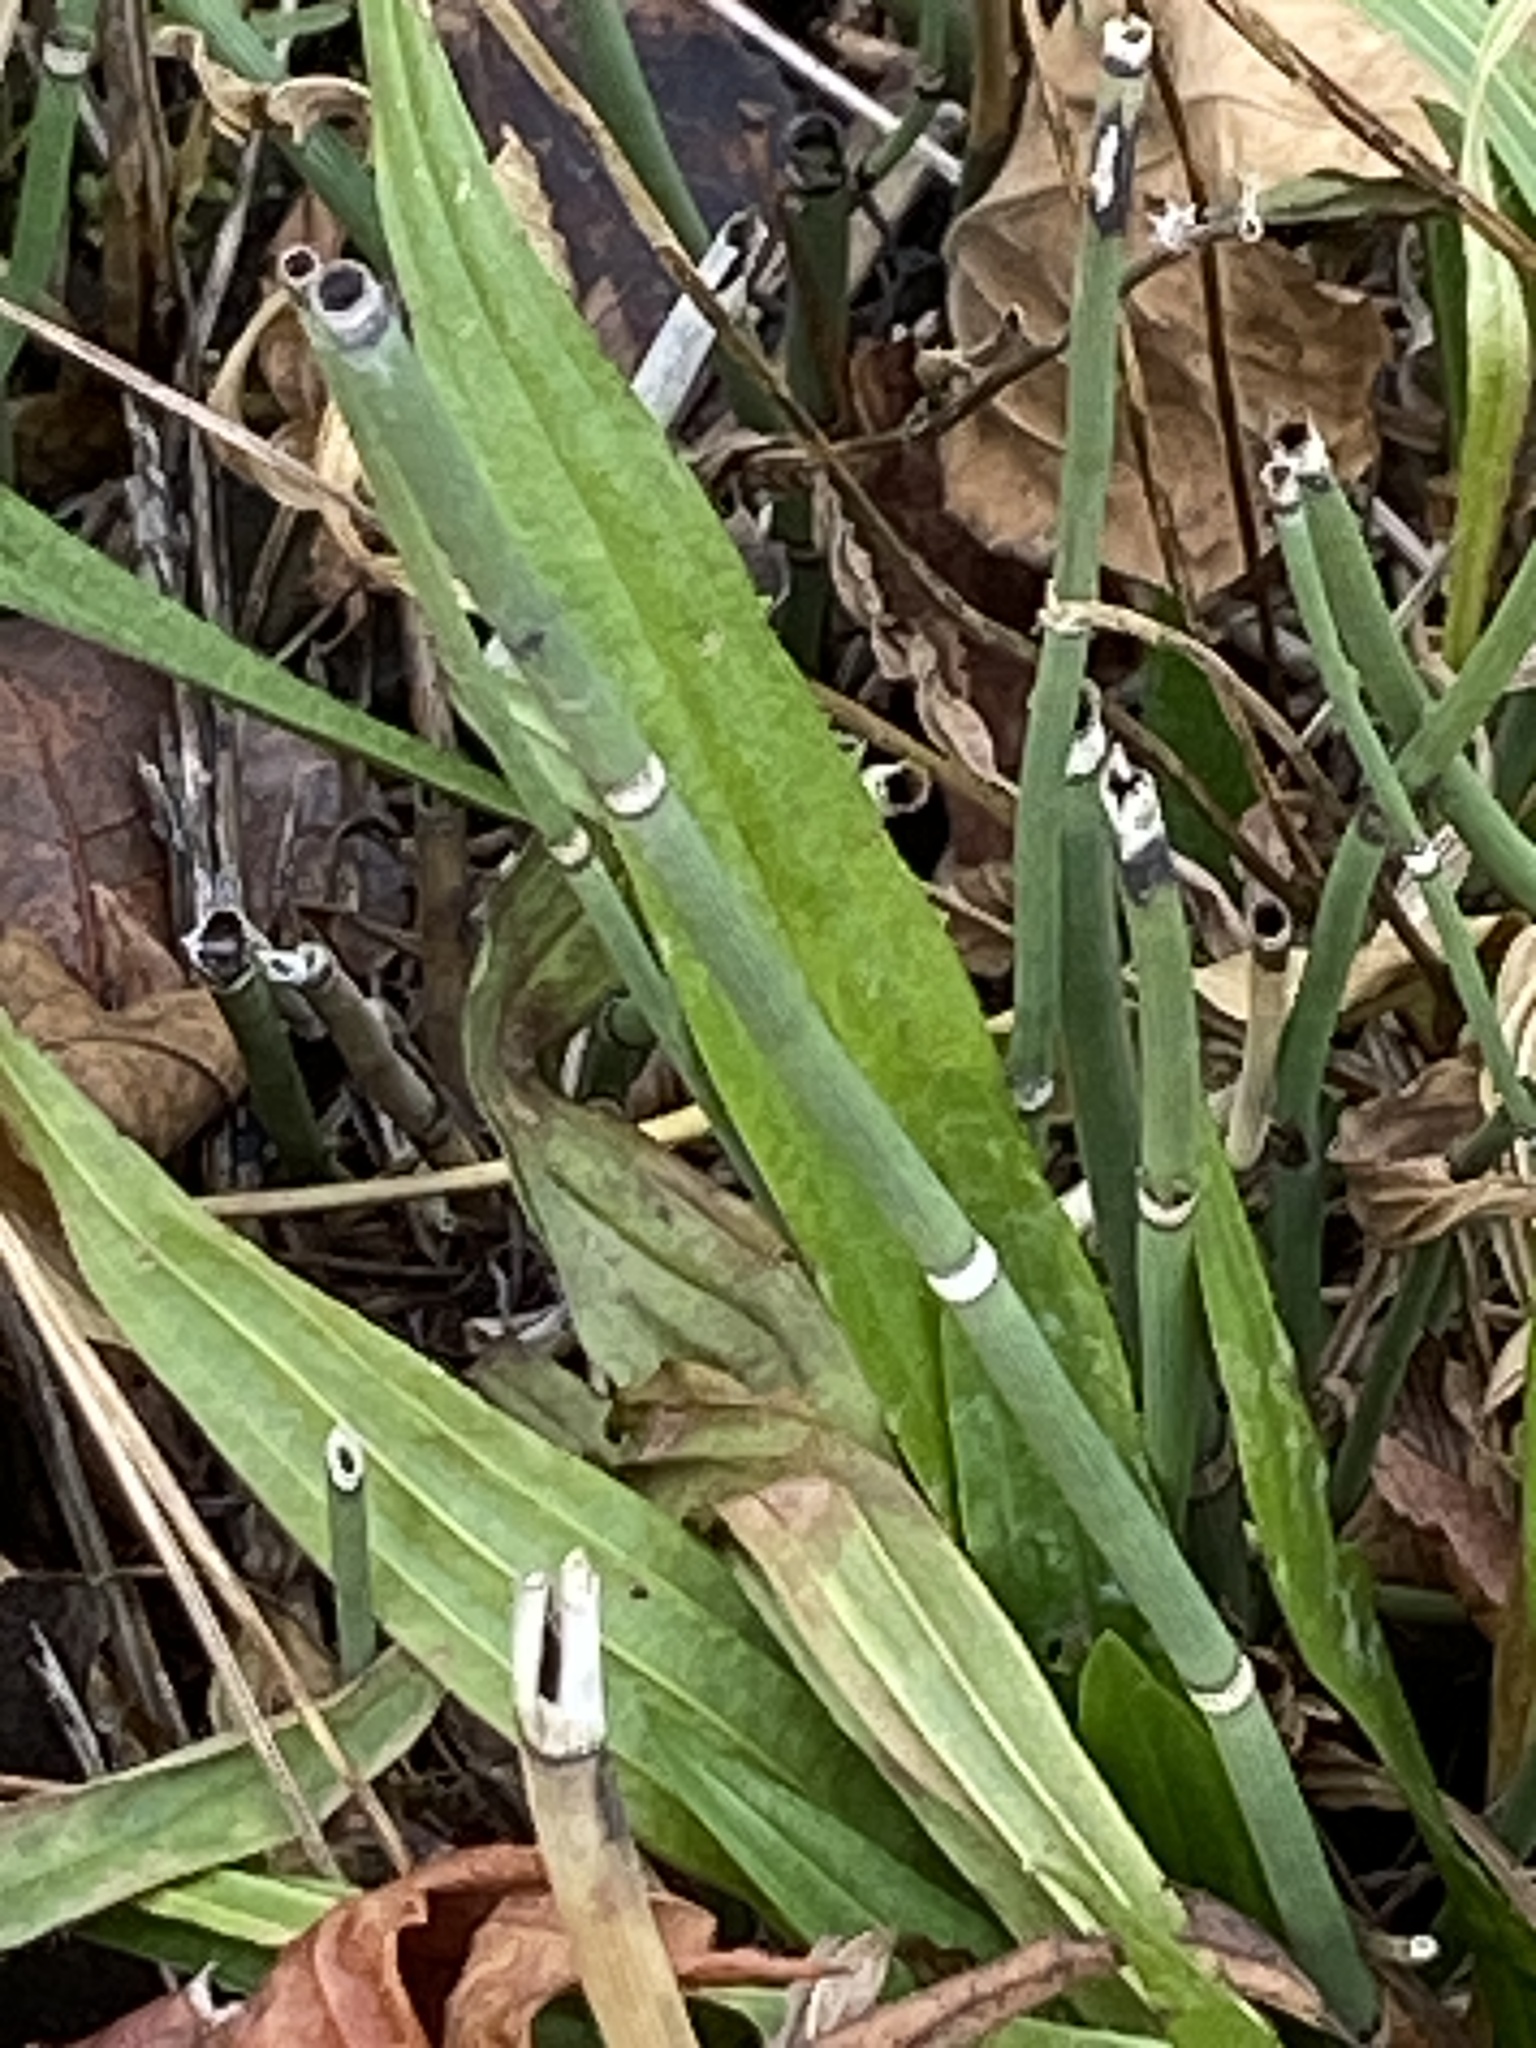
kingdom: Plantae
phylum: Tracheophyta
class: Polypodiopsida
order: Equisetales
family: Equisetaceae
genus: Equisetum
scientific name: Equisetum hyemale
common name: Rough horsetail
